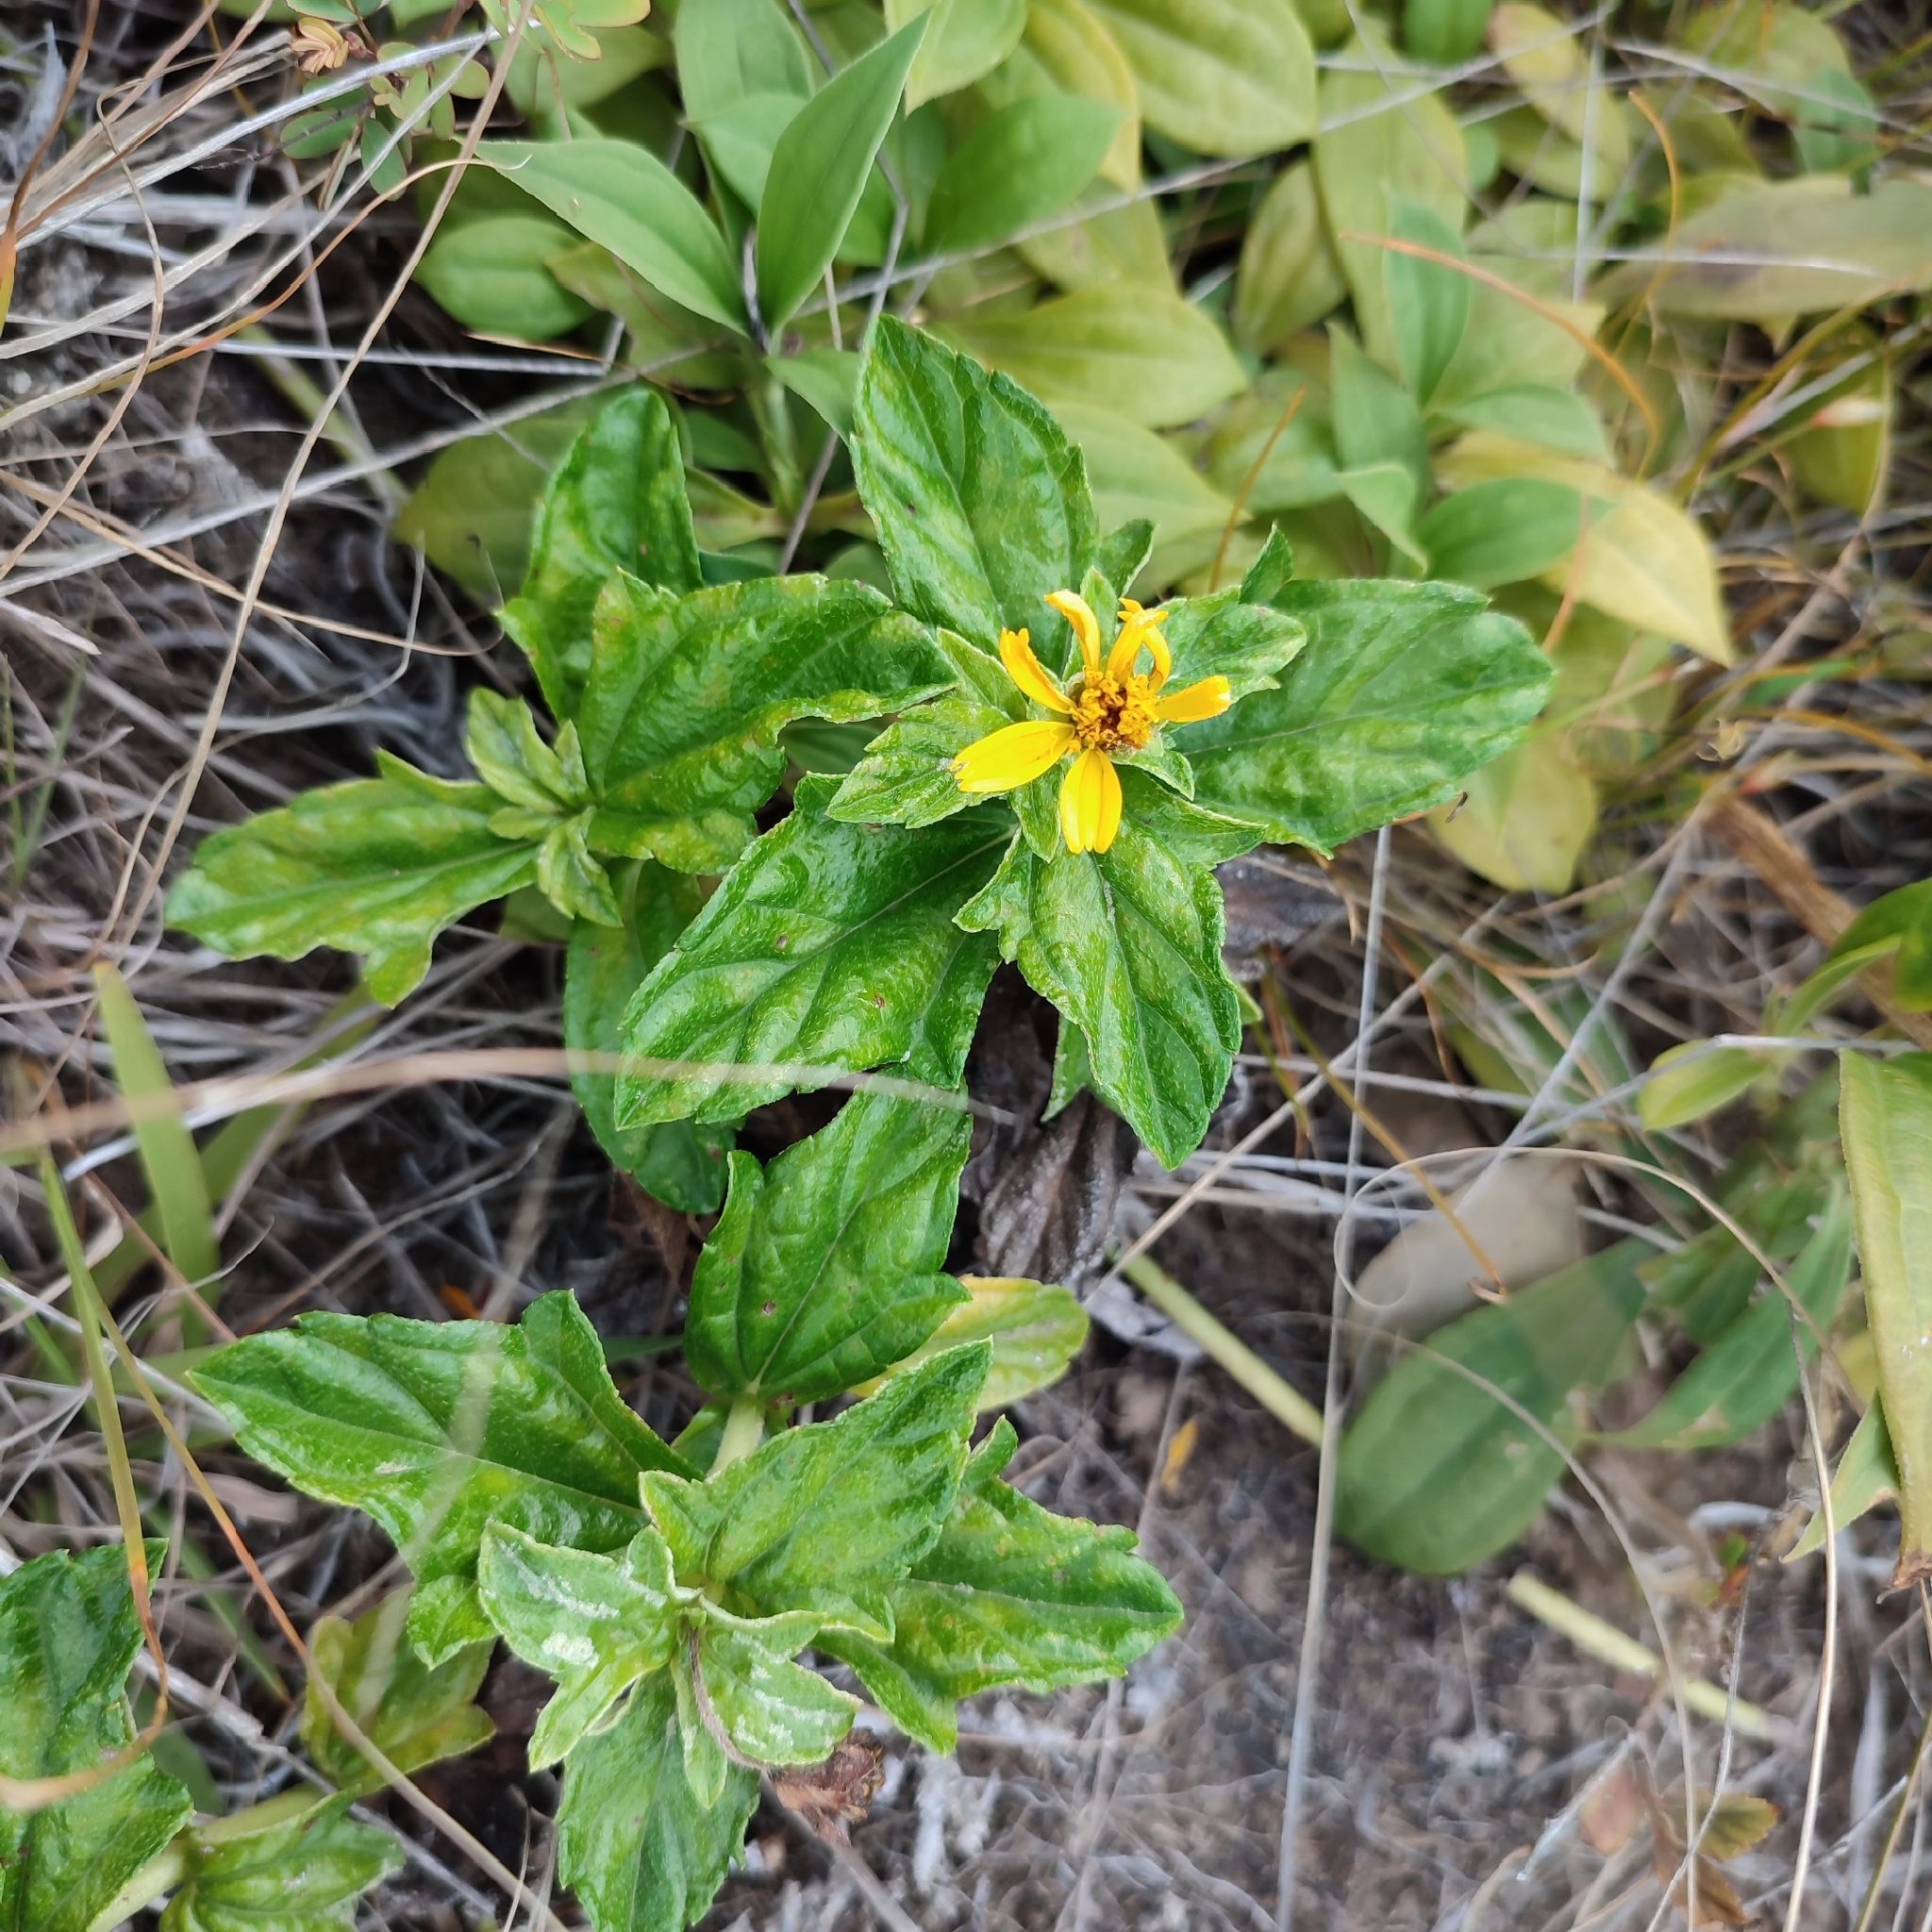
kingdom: Plantae
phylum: Tracheophyta
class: Magnoliopsida
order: Asterales
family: Asteraceae
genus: Sphagneticola
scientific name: Sphagneticola trilobata
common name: Bay biscayne creeping-oxeye
